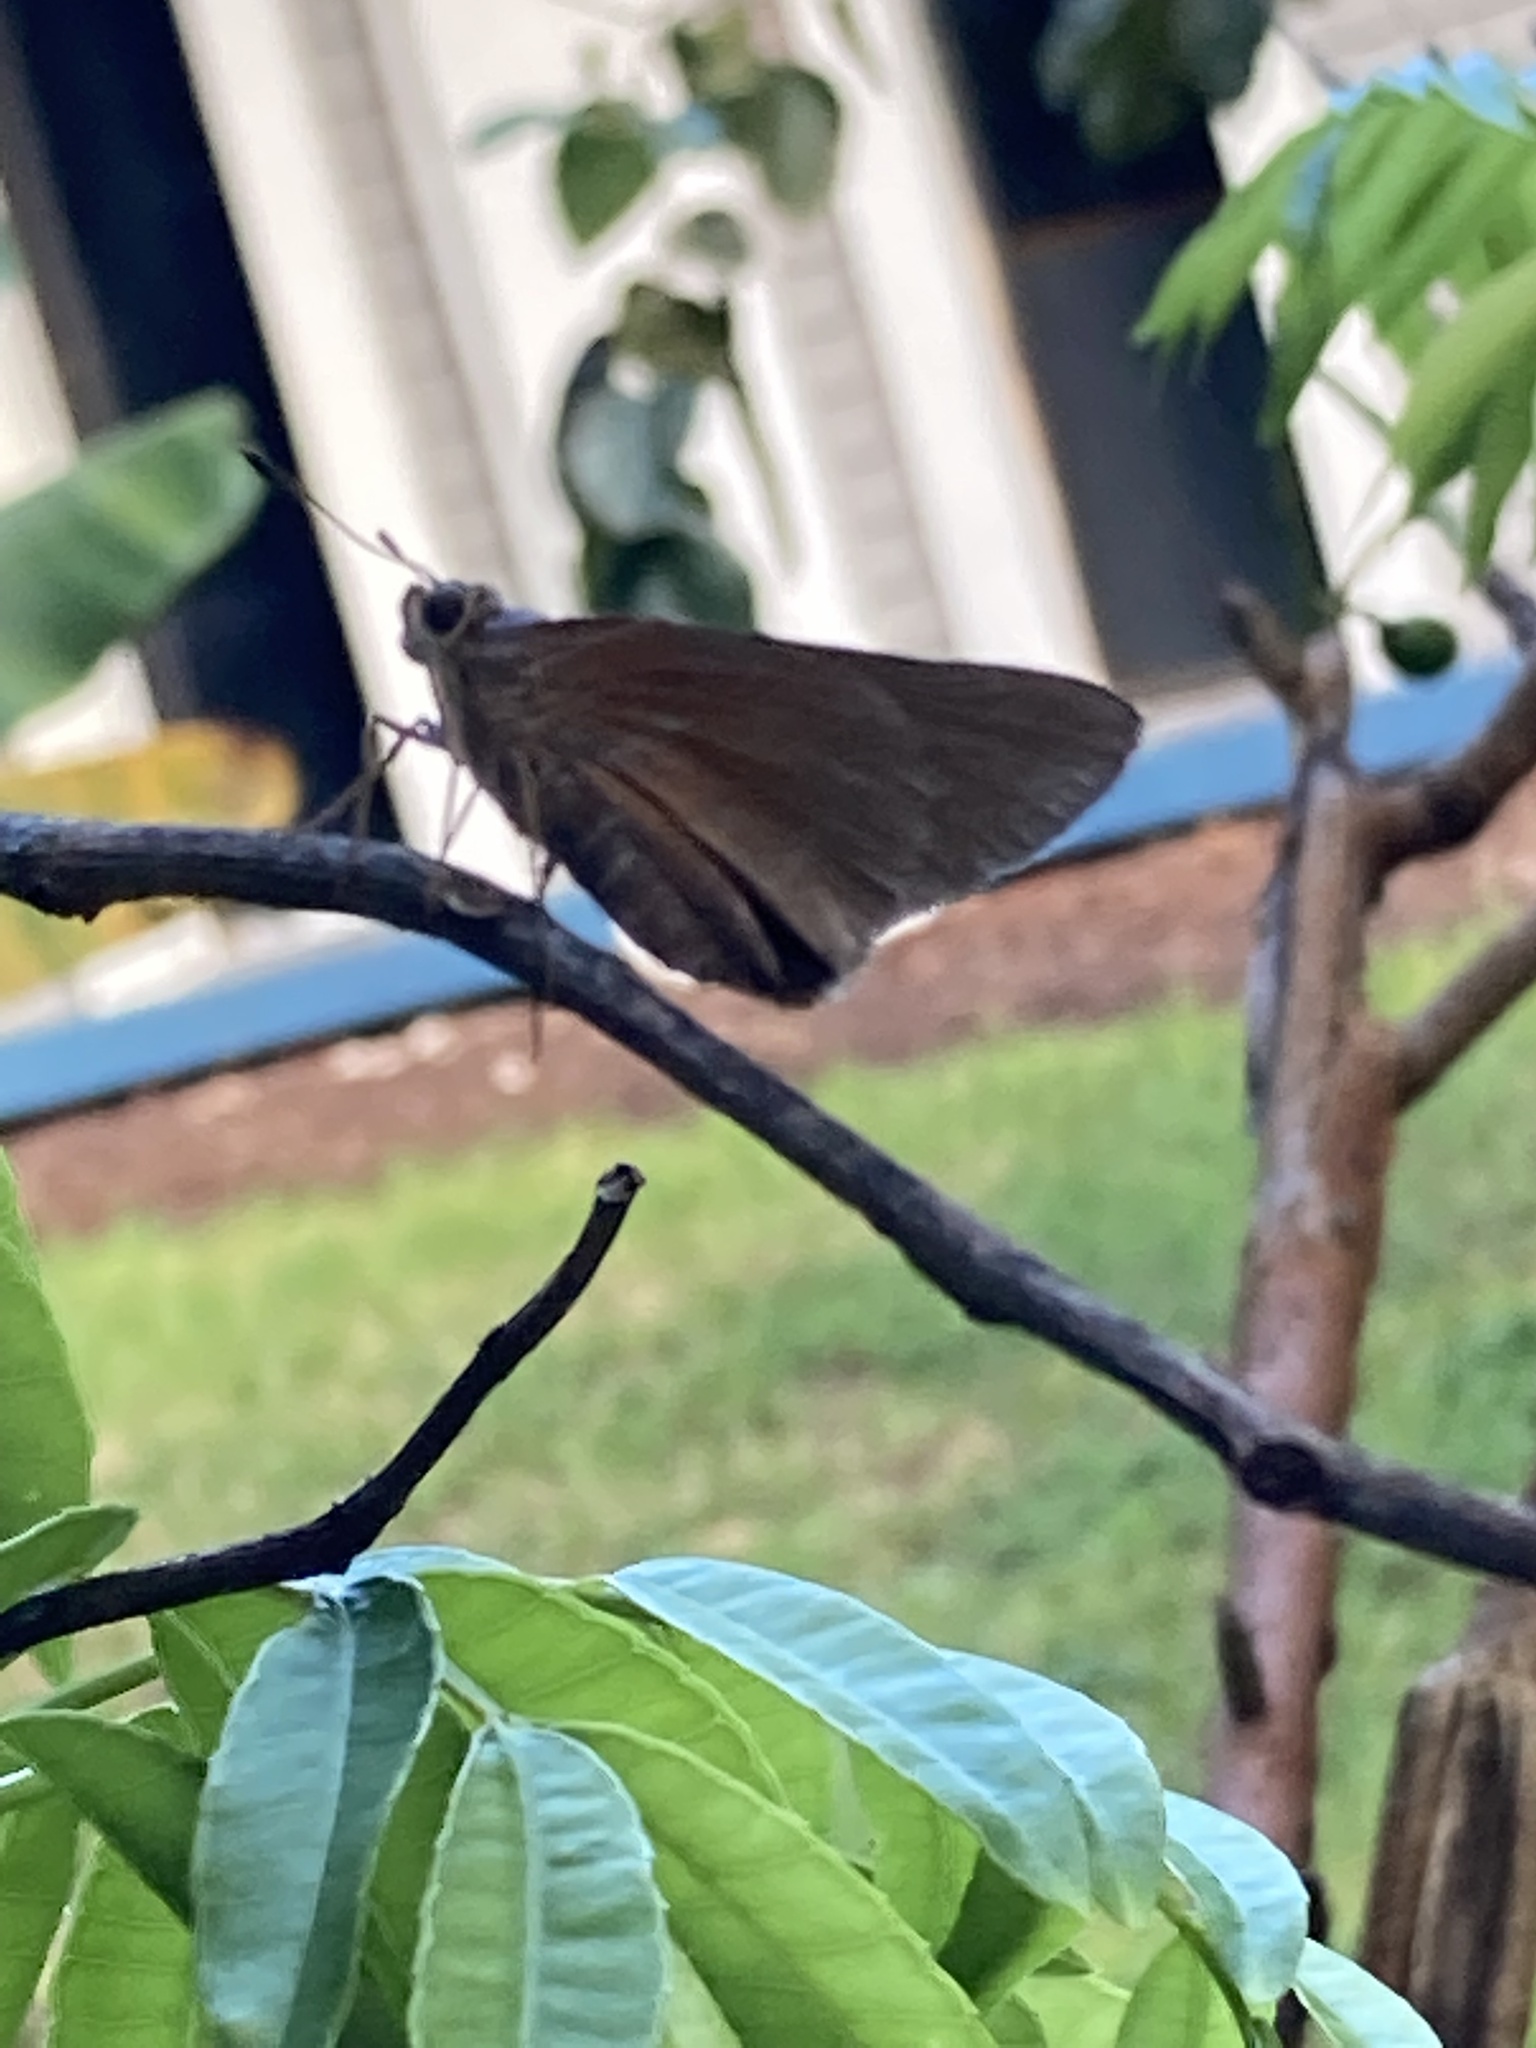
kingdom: Animalia
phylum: Arthropoda
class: Insecta
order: Lepidoptera
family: Hesperiidae
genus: Asbolis
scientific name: Asbolis capucinus
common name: Monk skipper
